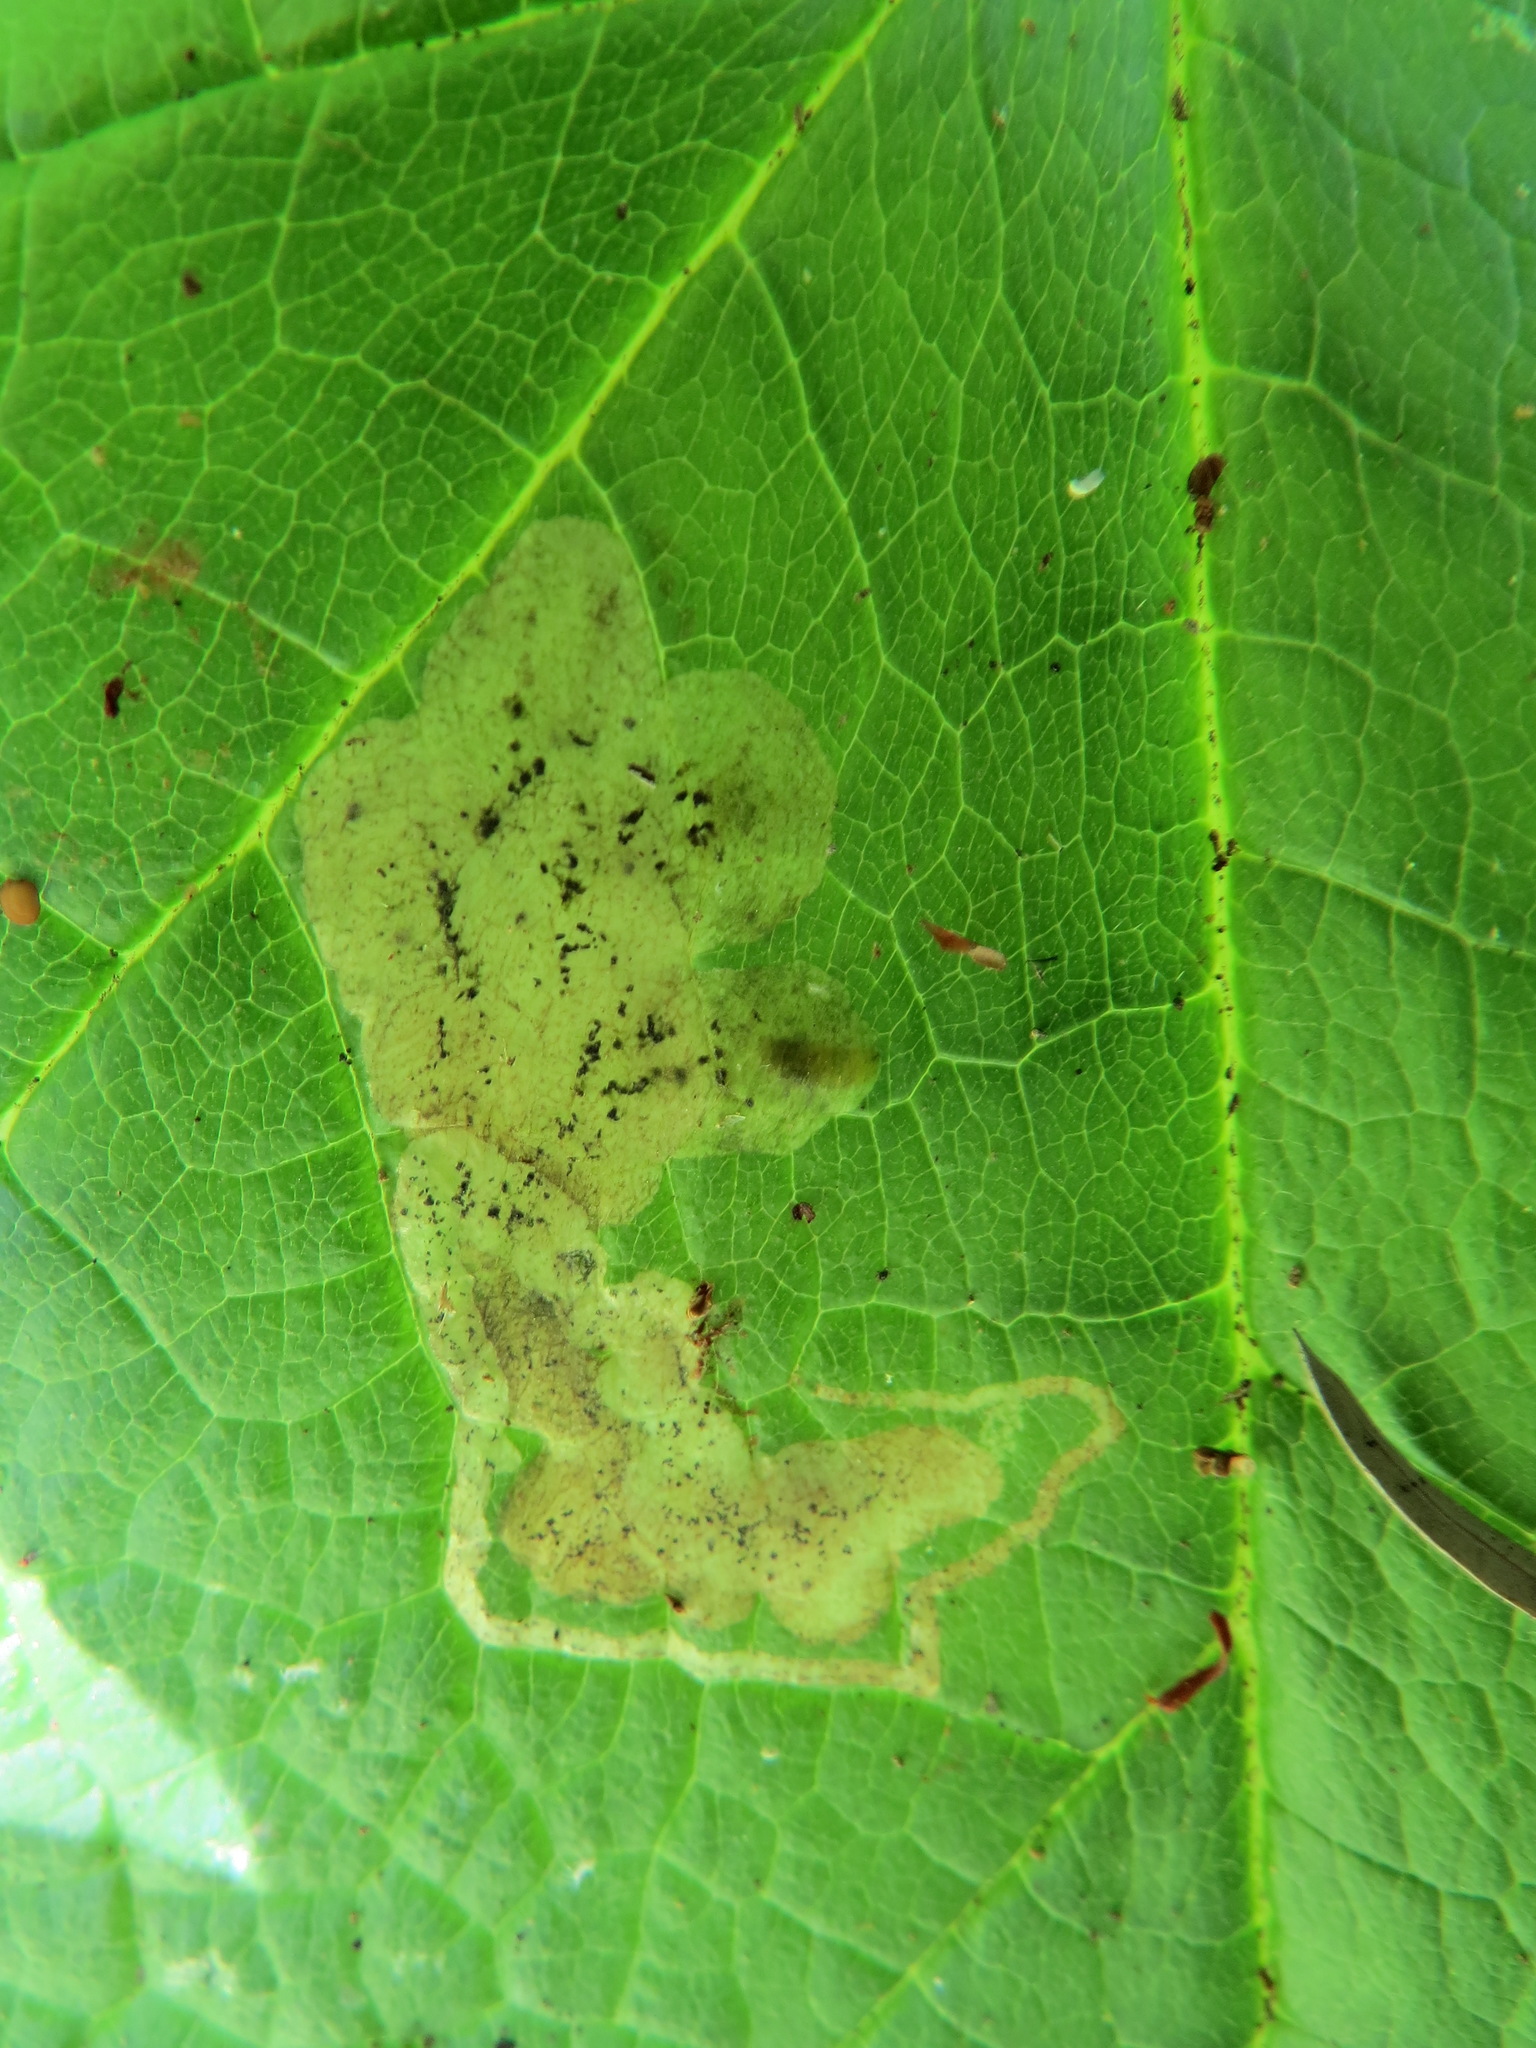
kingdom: Animalia
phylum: Arthropoda
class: Insecta
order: Diptera
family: Agromyzidae
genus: Agromyza
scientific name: Agromyza vockerothi
